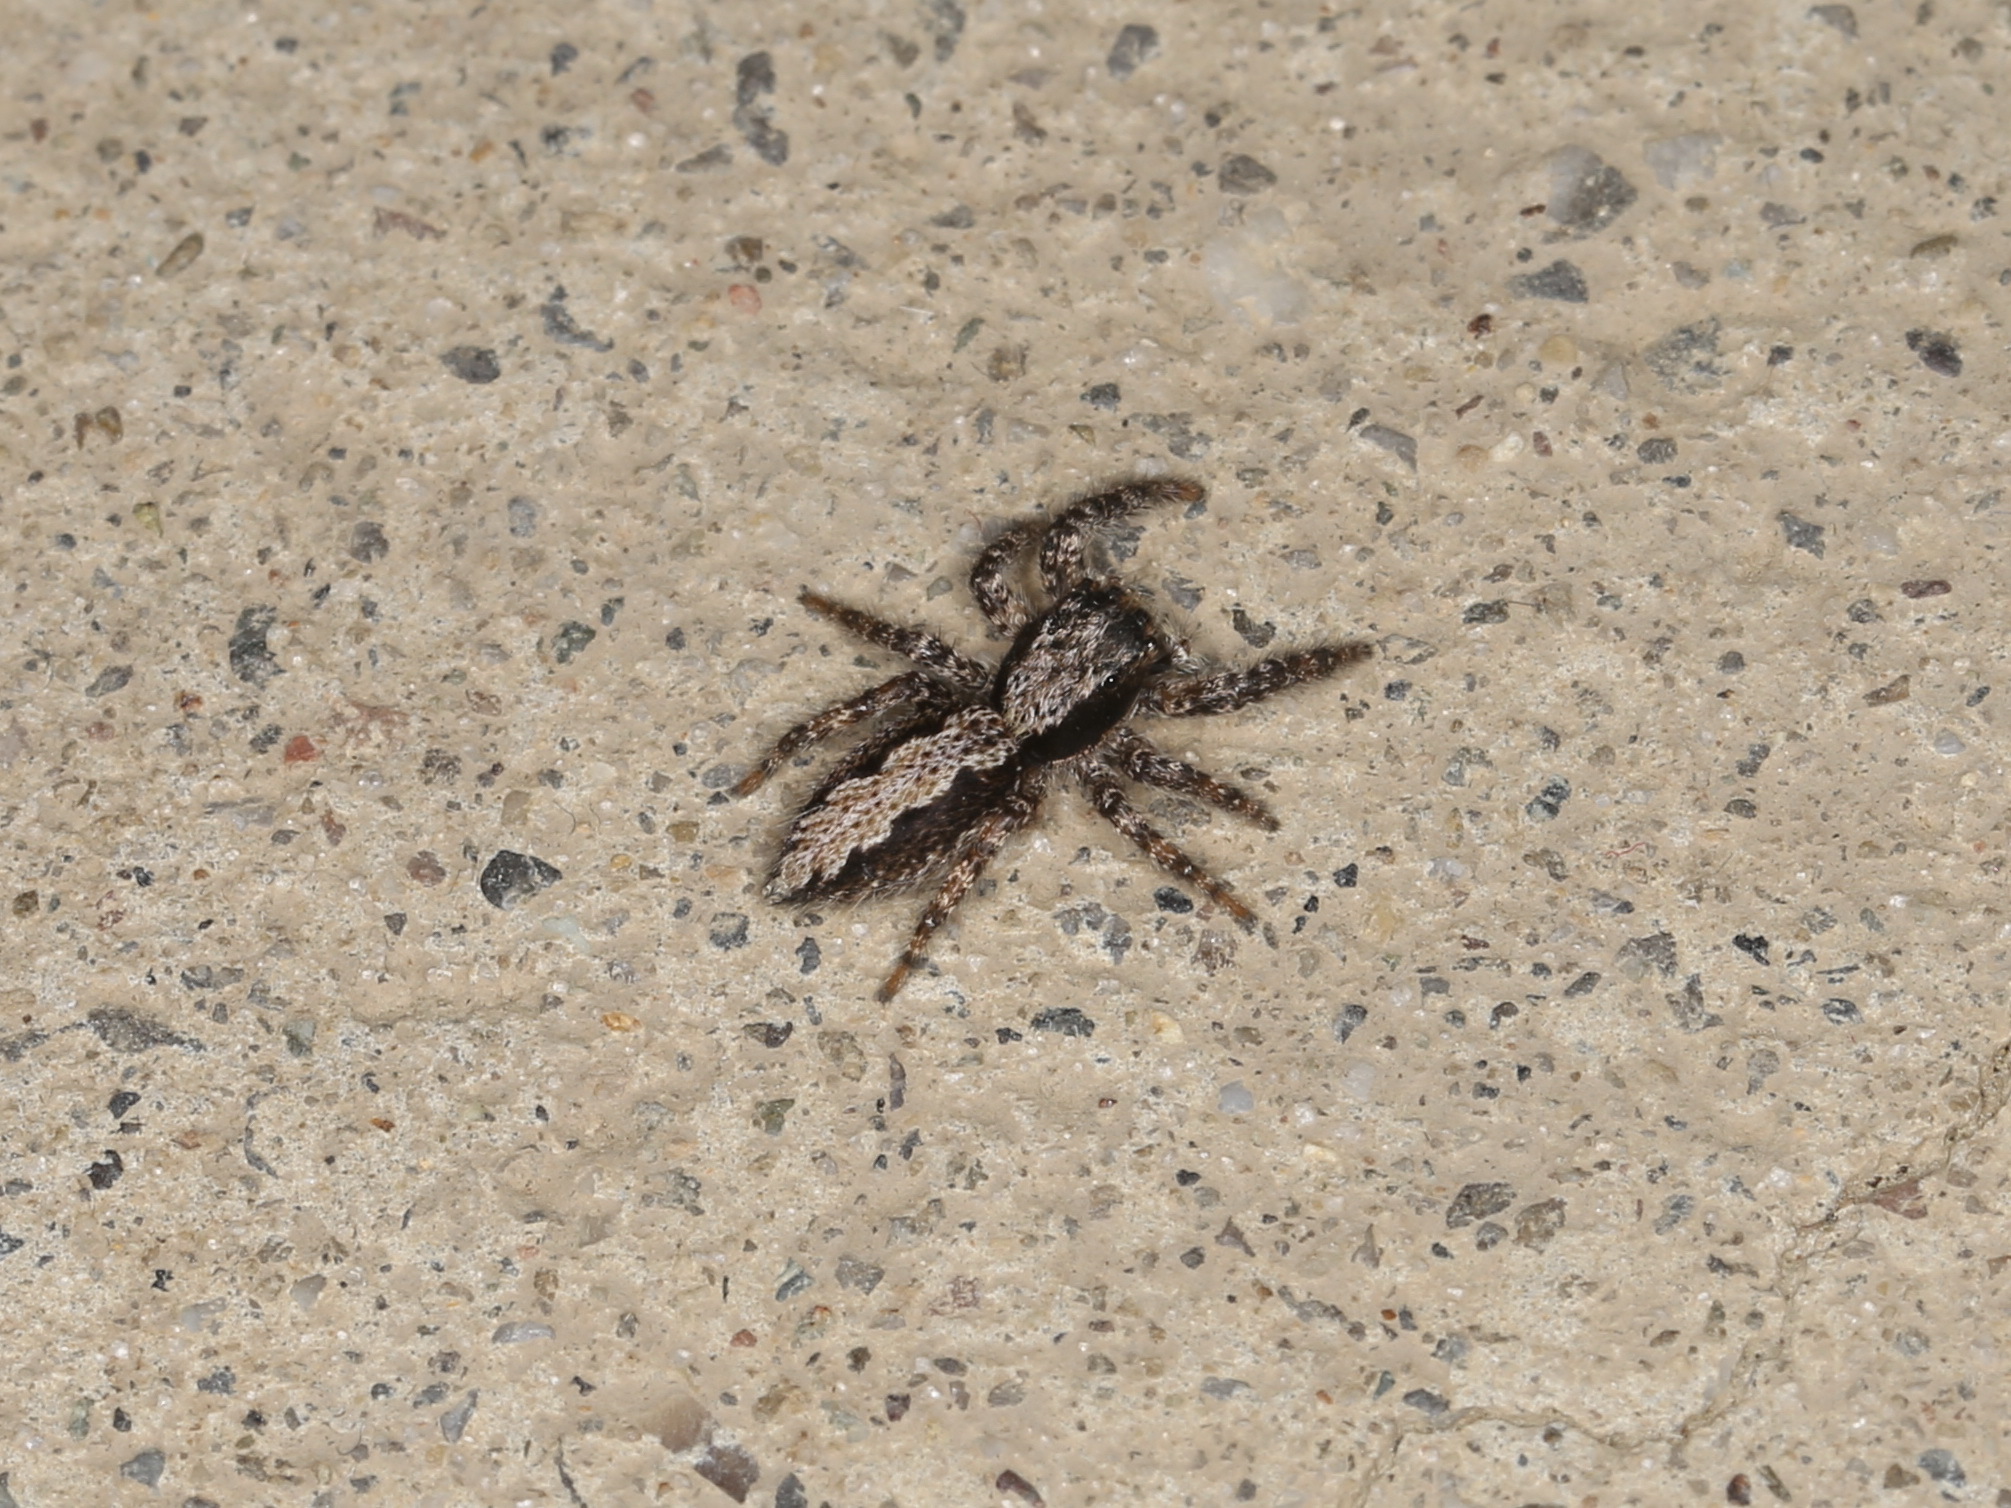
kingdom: Animalia
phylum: Arthropoda
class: Arachnida
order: Araneae
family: Salticidae
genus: Platycryptus
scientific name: Platycryptus californicus
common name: Jumping spiders
